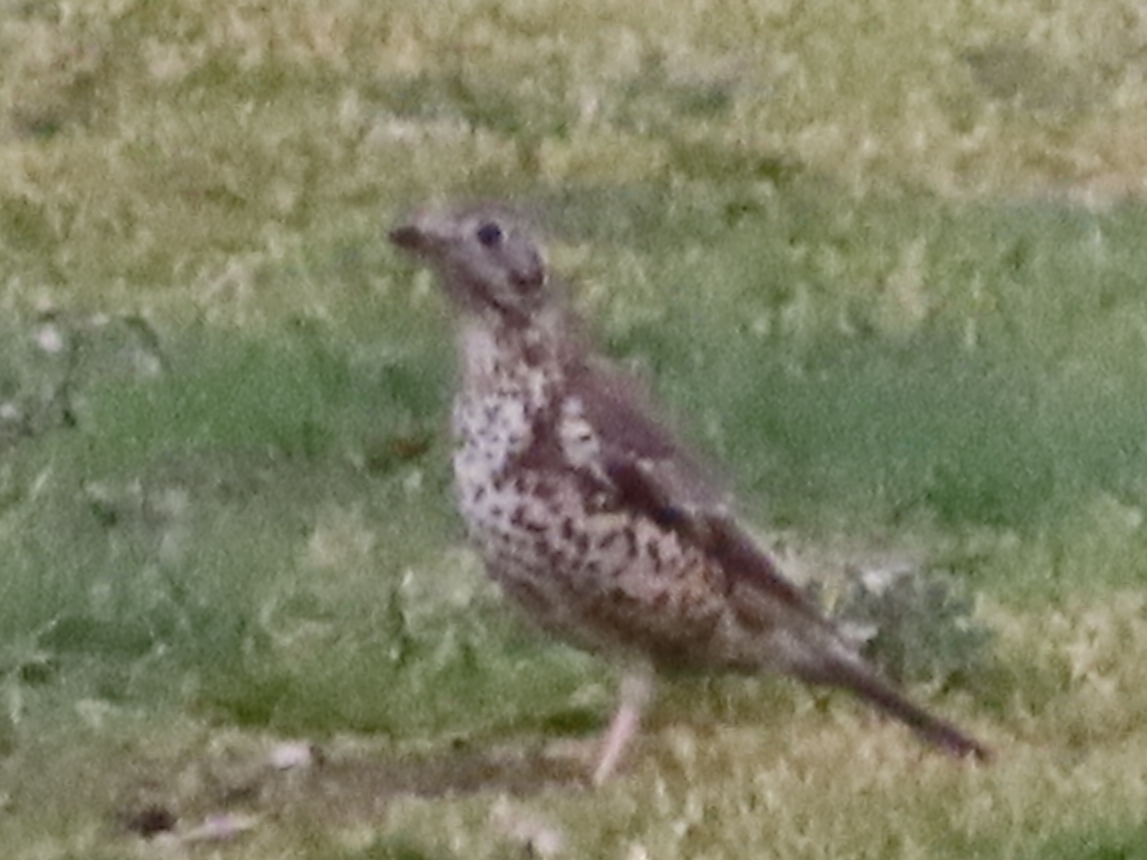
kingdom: Animalia
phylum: Chordata
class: Aves
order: Passeriformes
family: Turdidae
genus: Turdus
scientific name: Turdus viscivorus
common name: Mistle thrush
